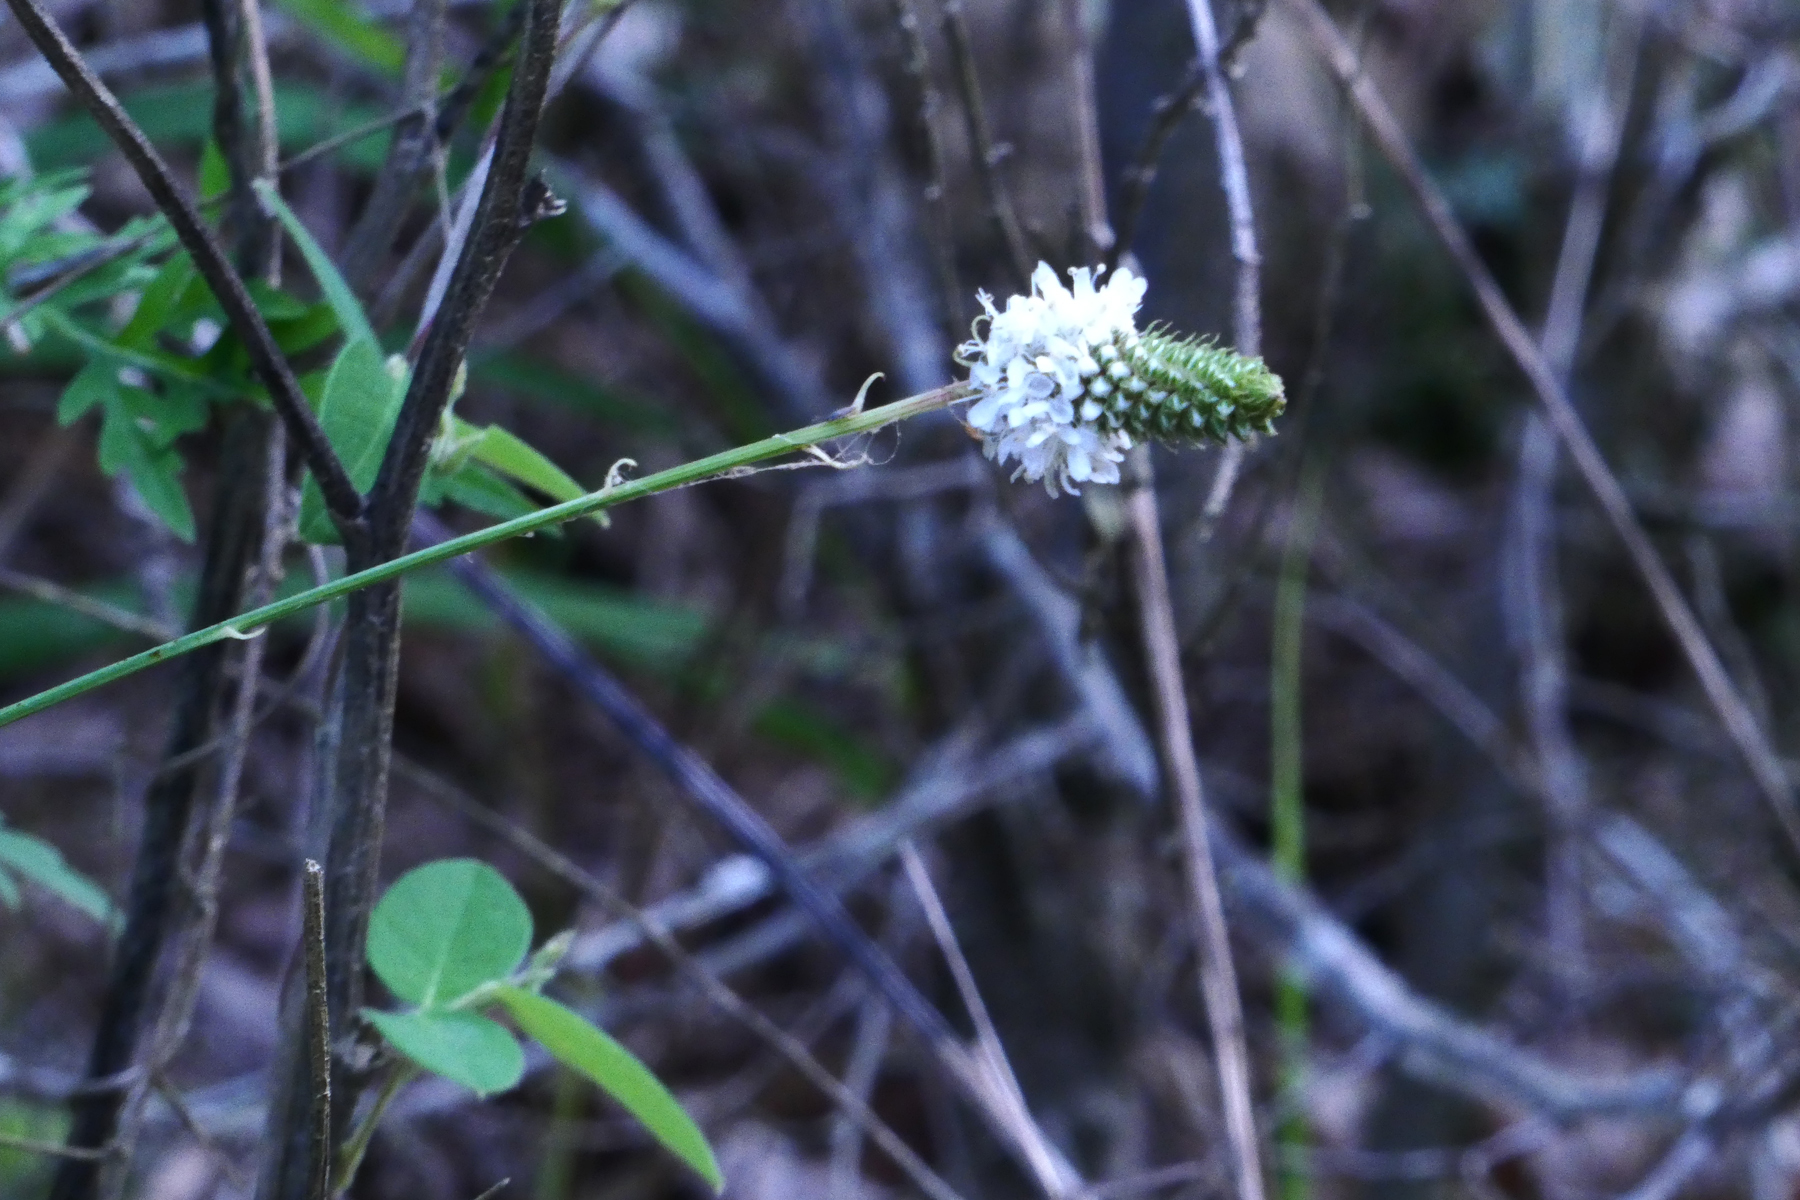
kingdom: Plantae
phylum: Tracheophyta
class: Magnoliopsida
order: Fabales
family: Fabaceae
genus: Dalea
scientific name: Dalea candida
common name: White prairie-clover
